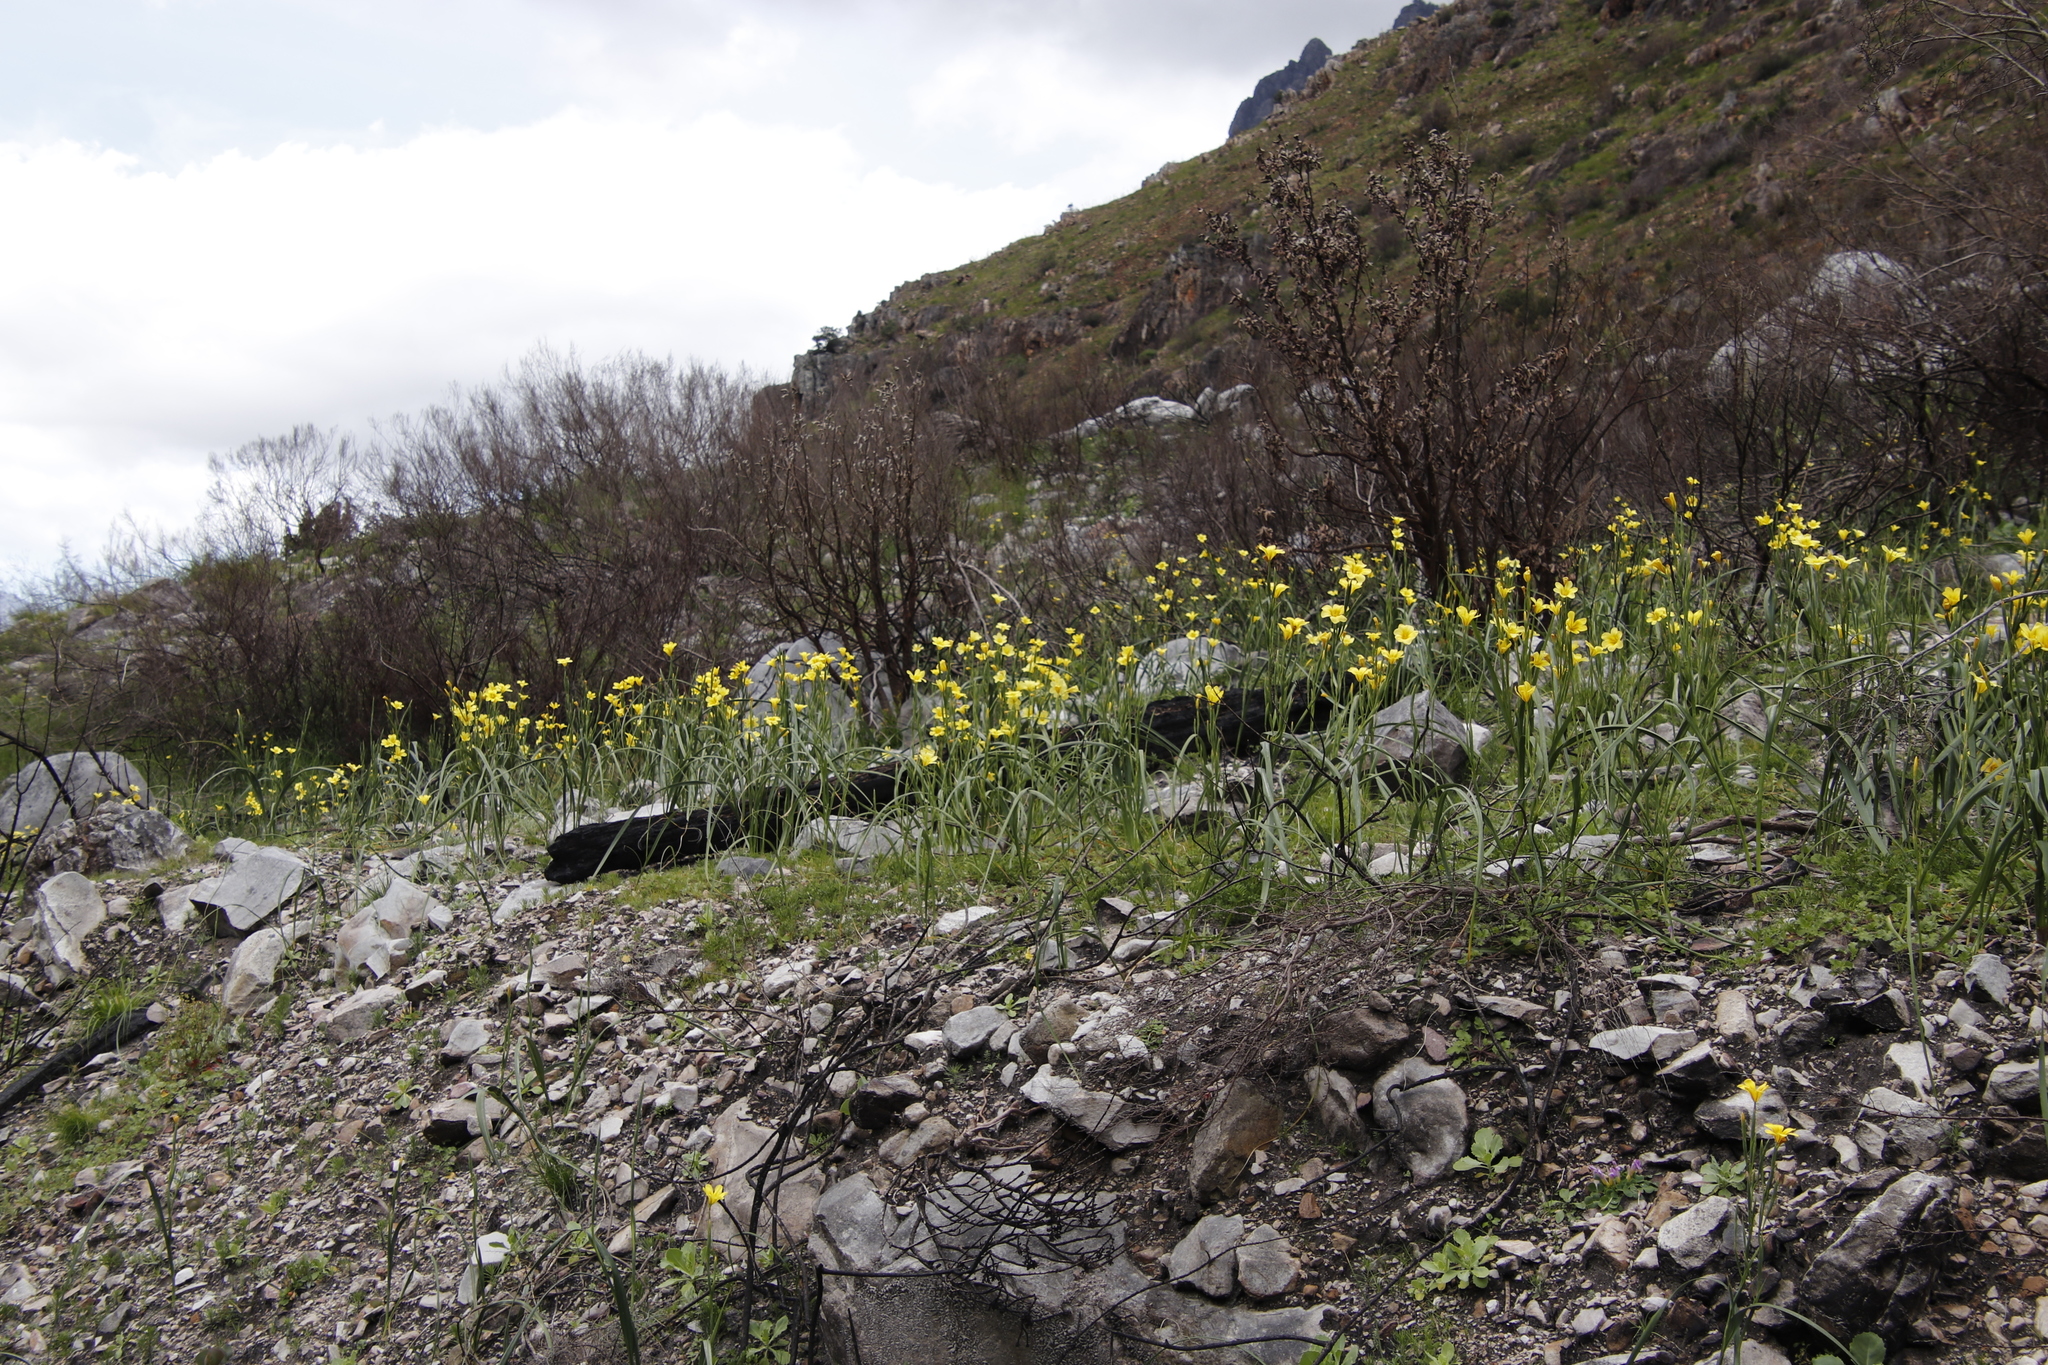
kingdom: Plantae
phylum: Tracheophyta
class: Liliopsida
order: Asparagales
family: Iridaceae
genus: Moraea
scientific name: Moraea ochroleuca
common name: Red tulp
